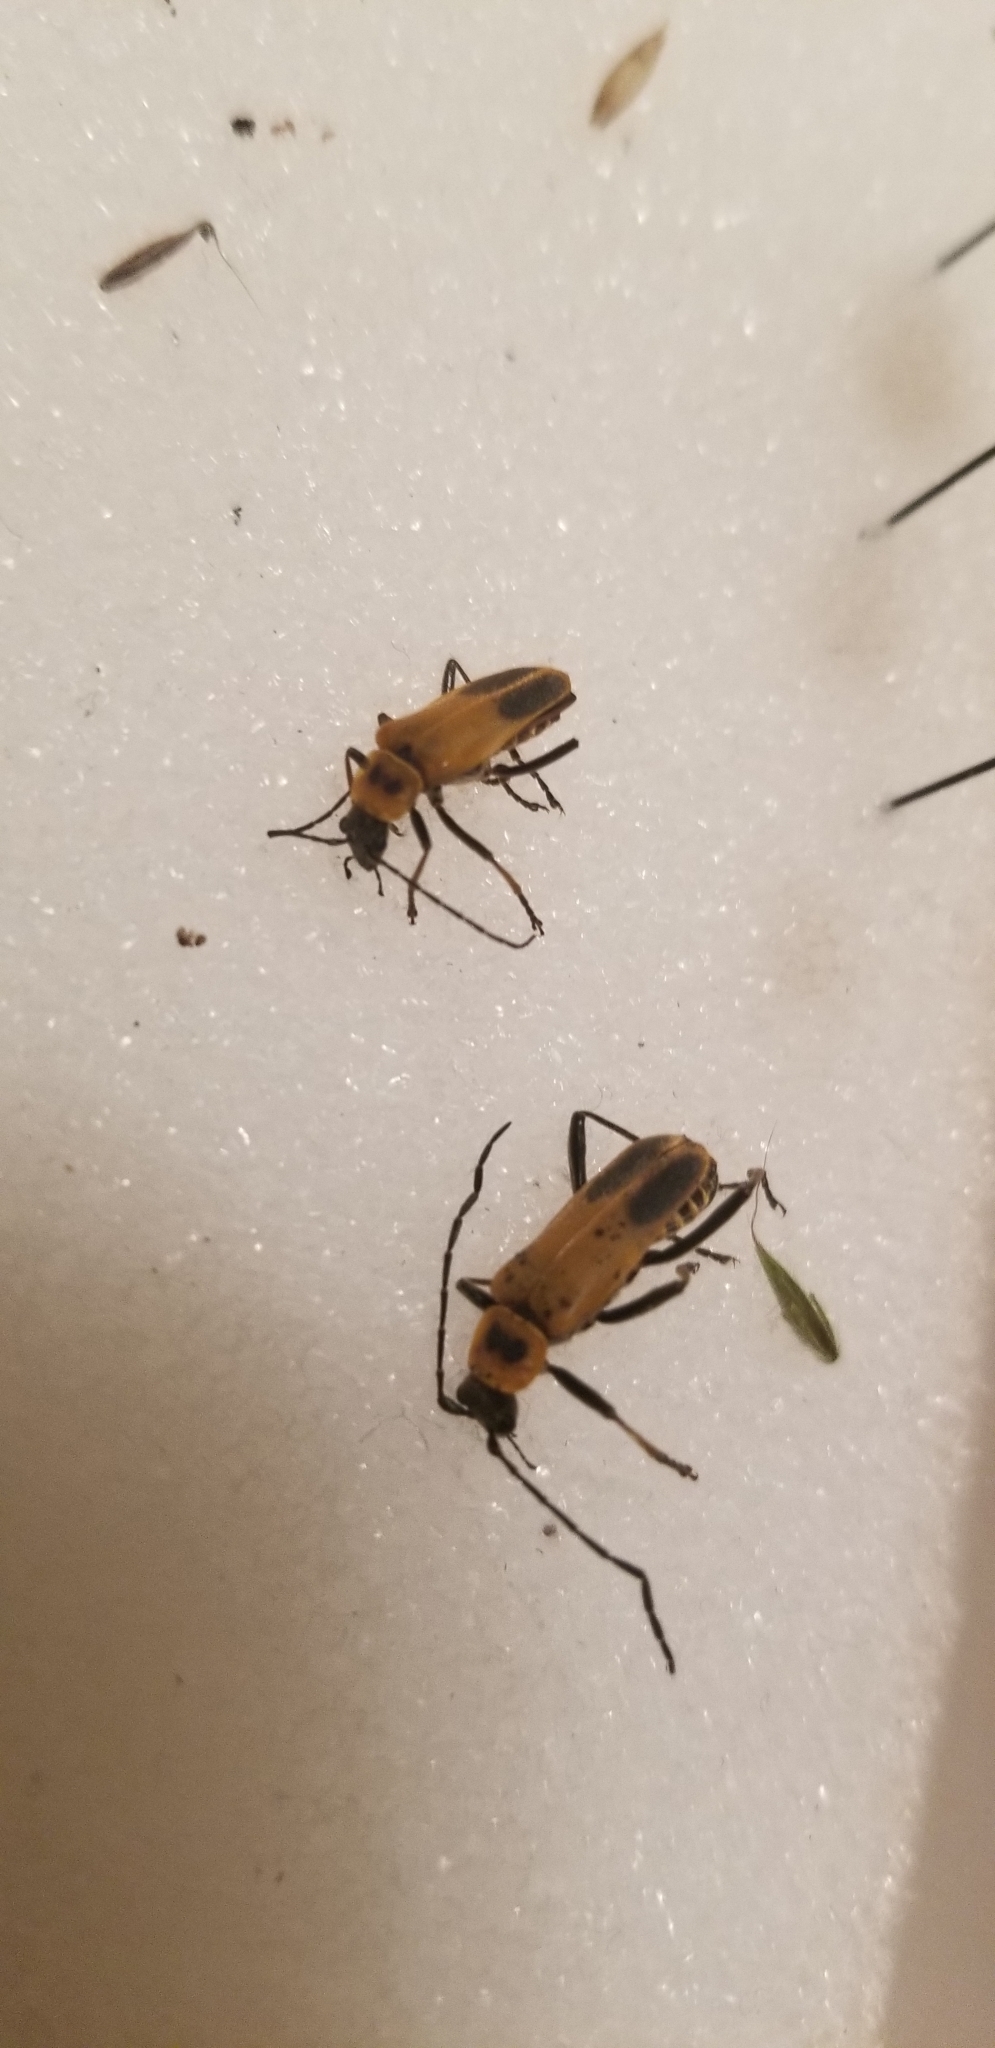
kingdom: Animalia
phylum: Arthropoda
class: Insecta
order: Coleoptera
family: Cantharidae
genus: Chauliognathus
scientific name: Chauliognathus pensylvanicus
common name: Goldenrod soldier beetle
